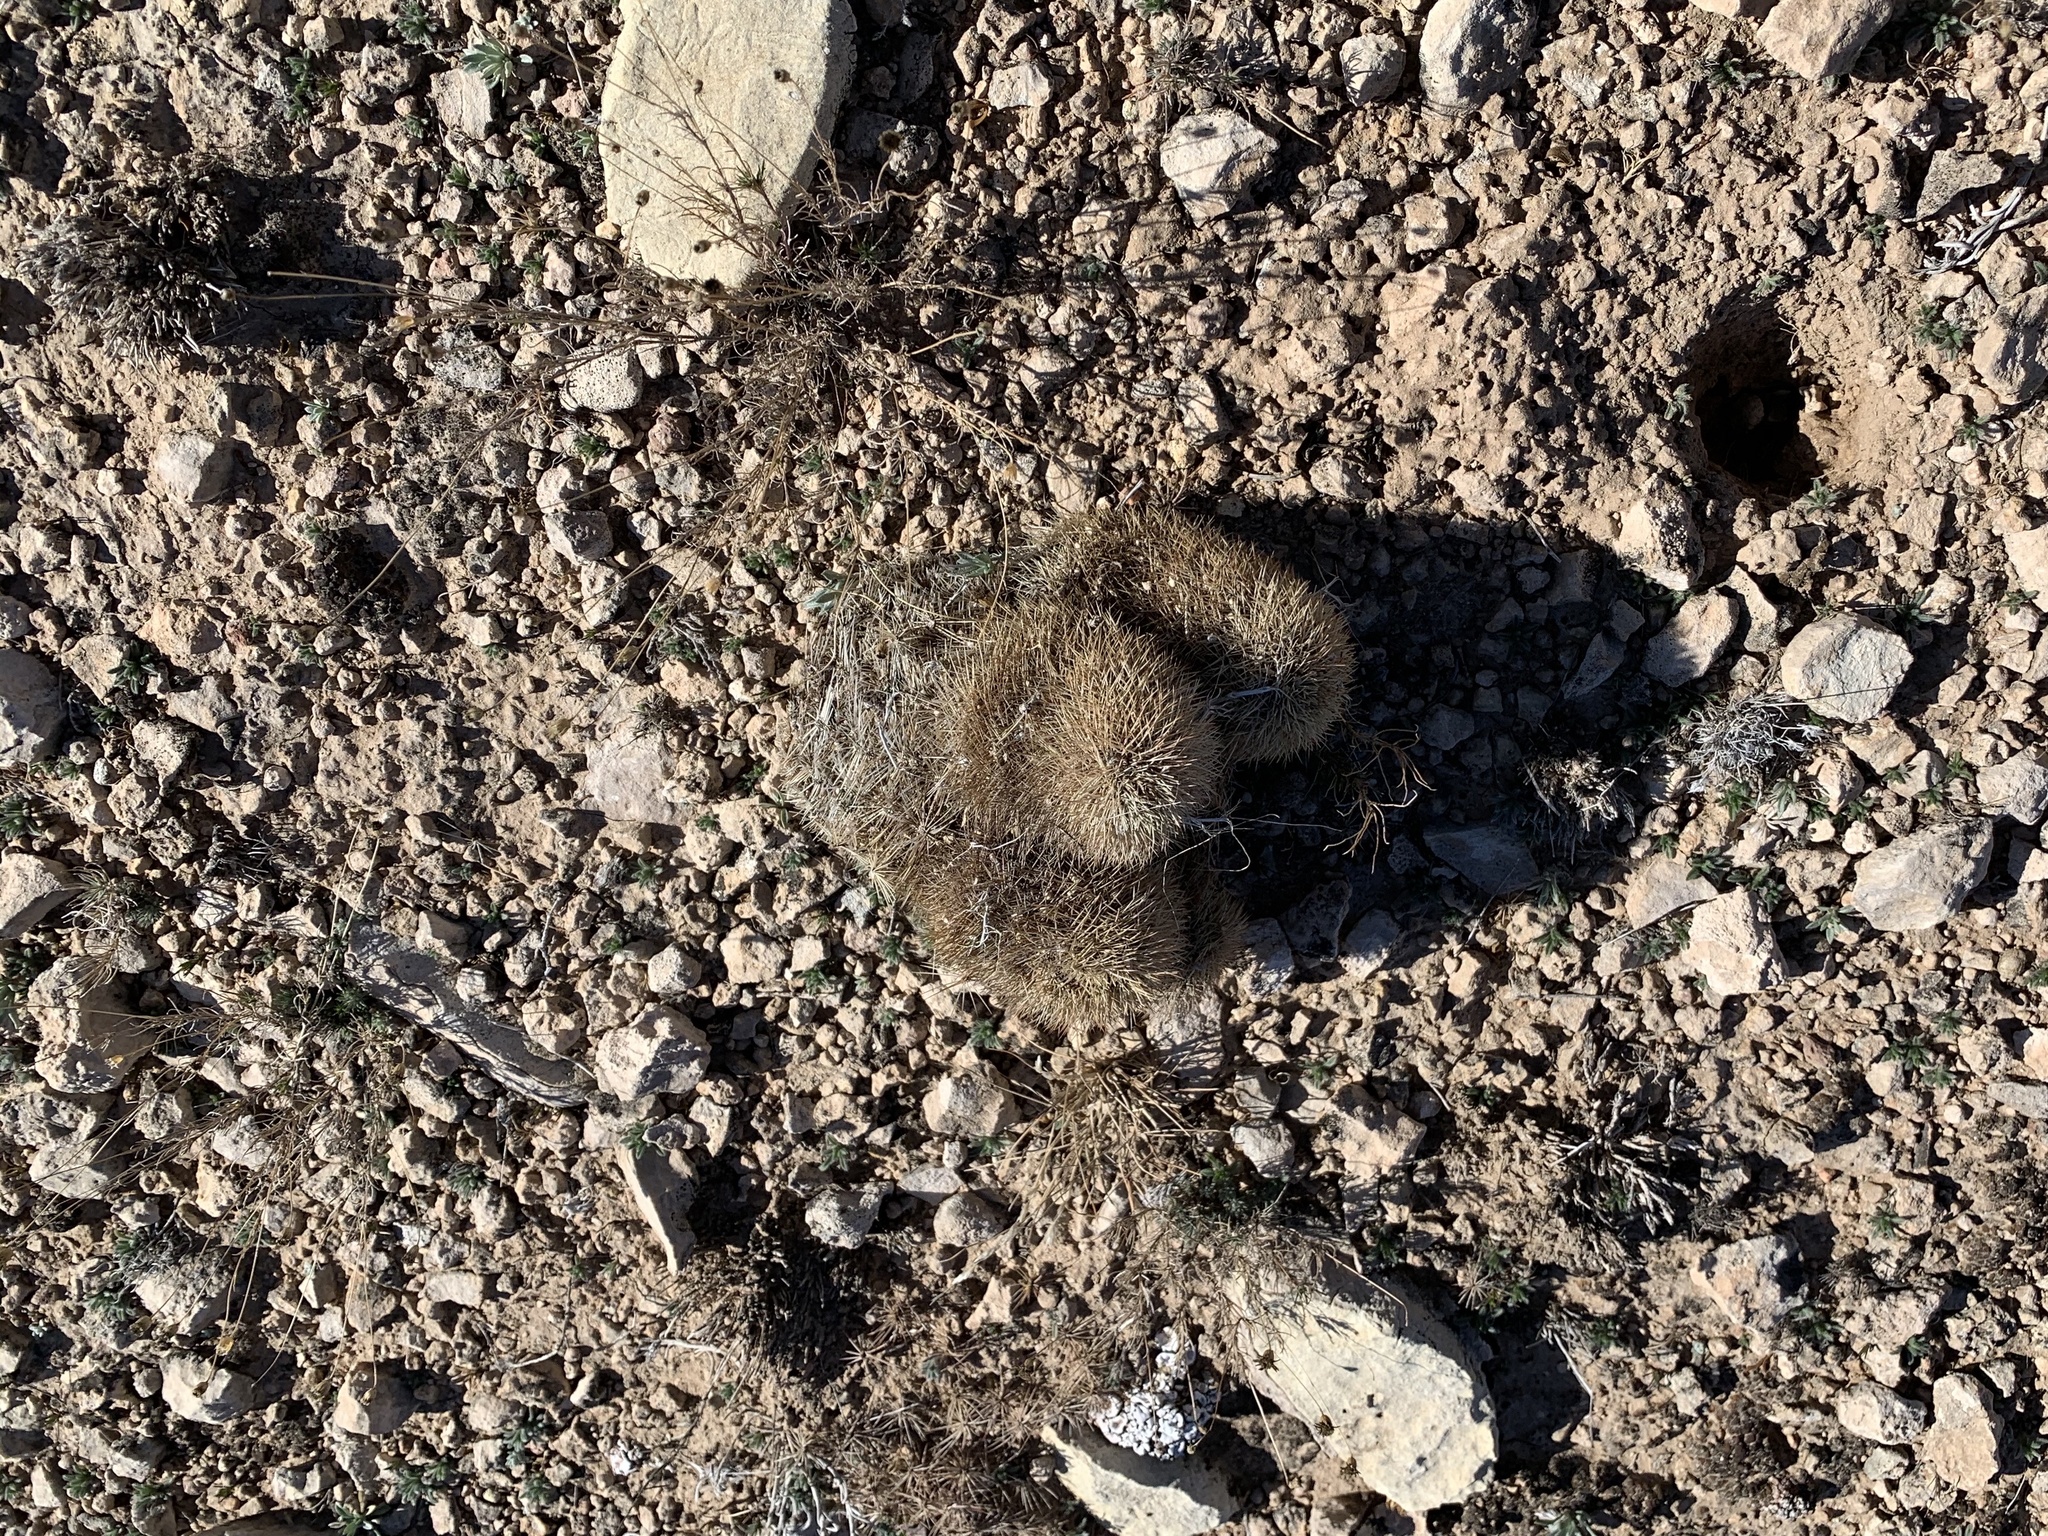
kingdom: Plantae
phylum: Tracheophyta
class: Magnoliopsida
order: Caryophyllales
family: Cactaceae
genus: Echinocereus
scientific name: Echinocereus dasyacanthus
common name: Spiny hedgehog cactus
